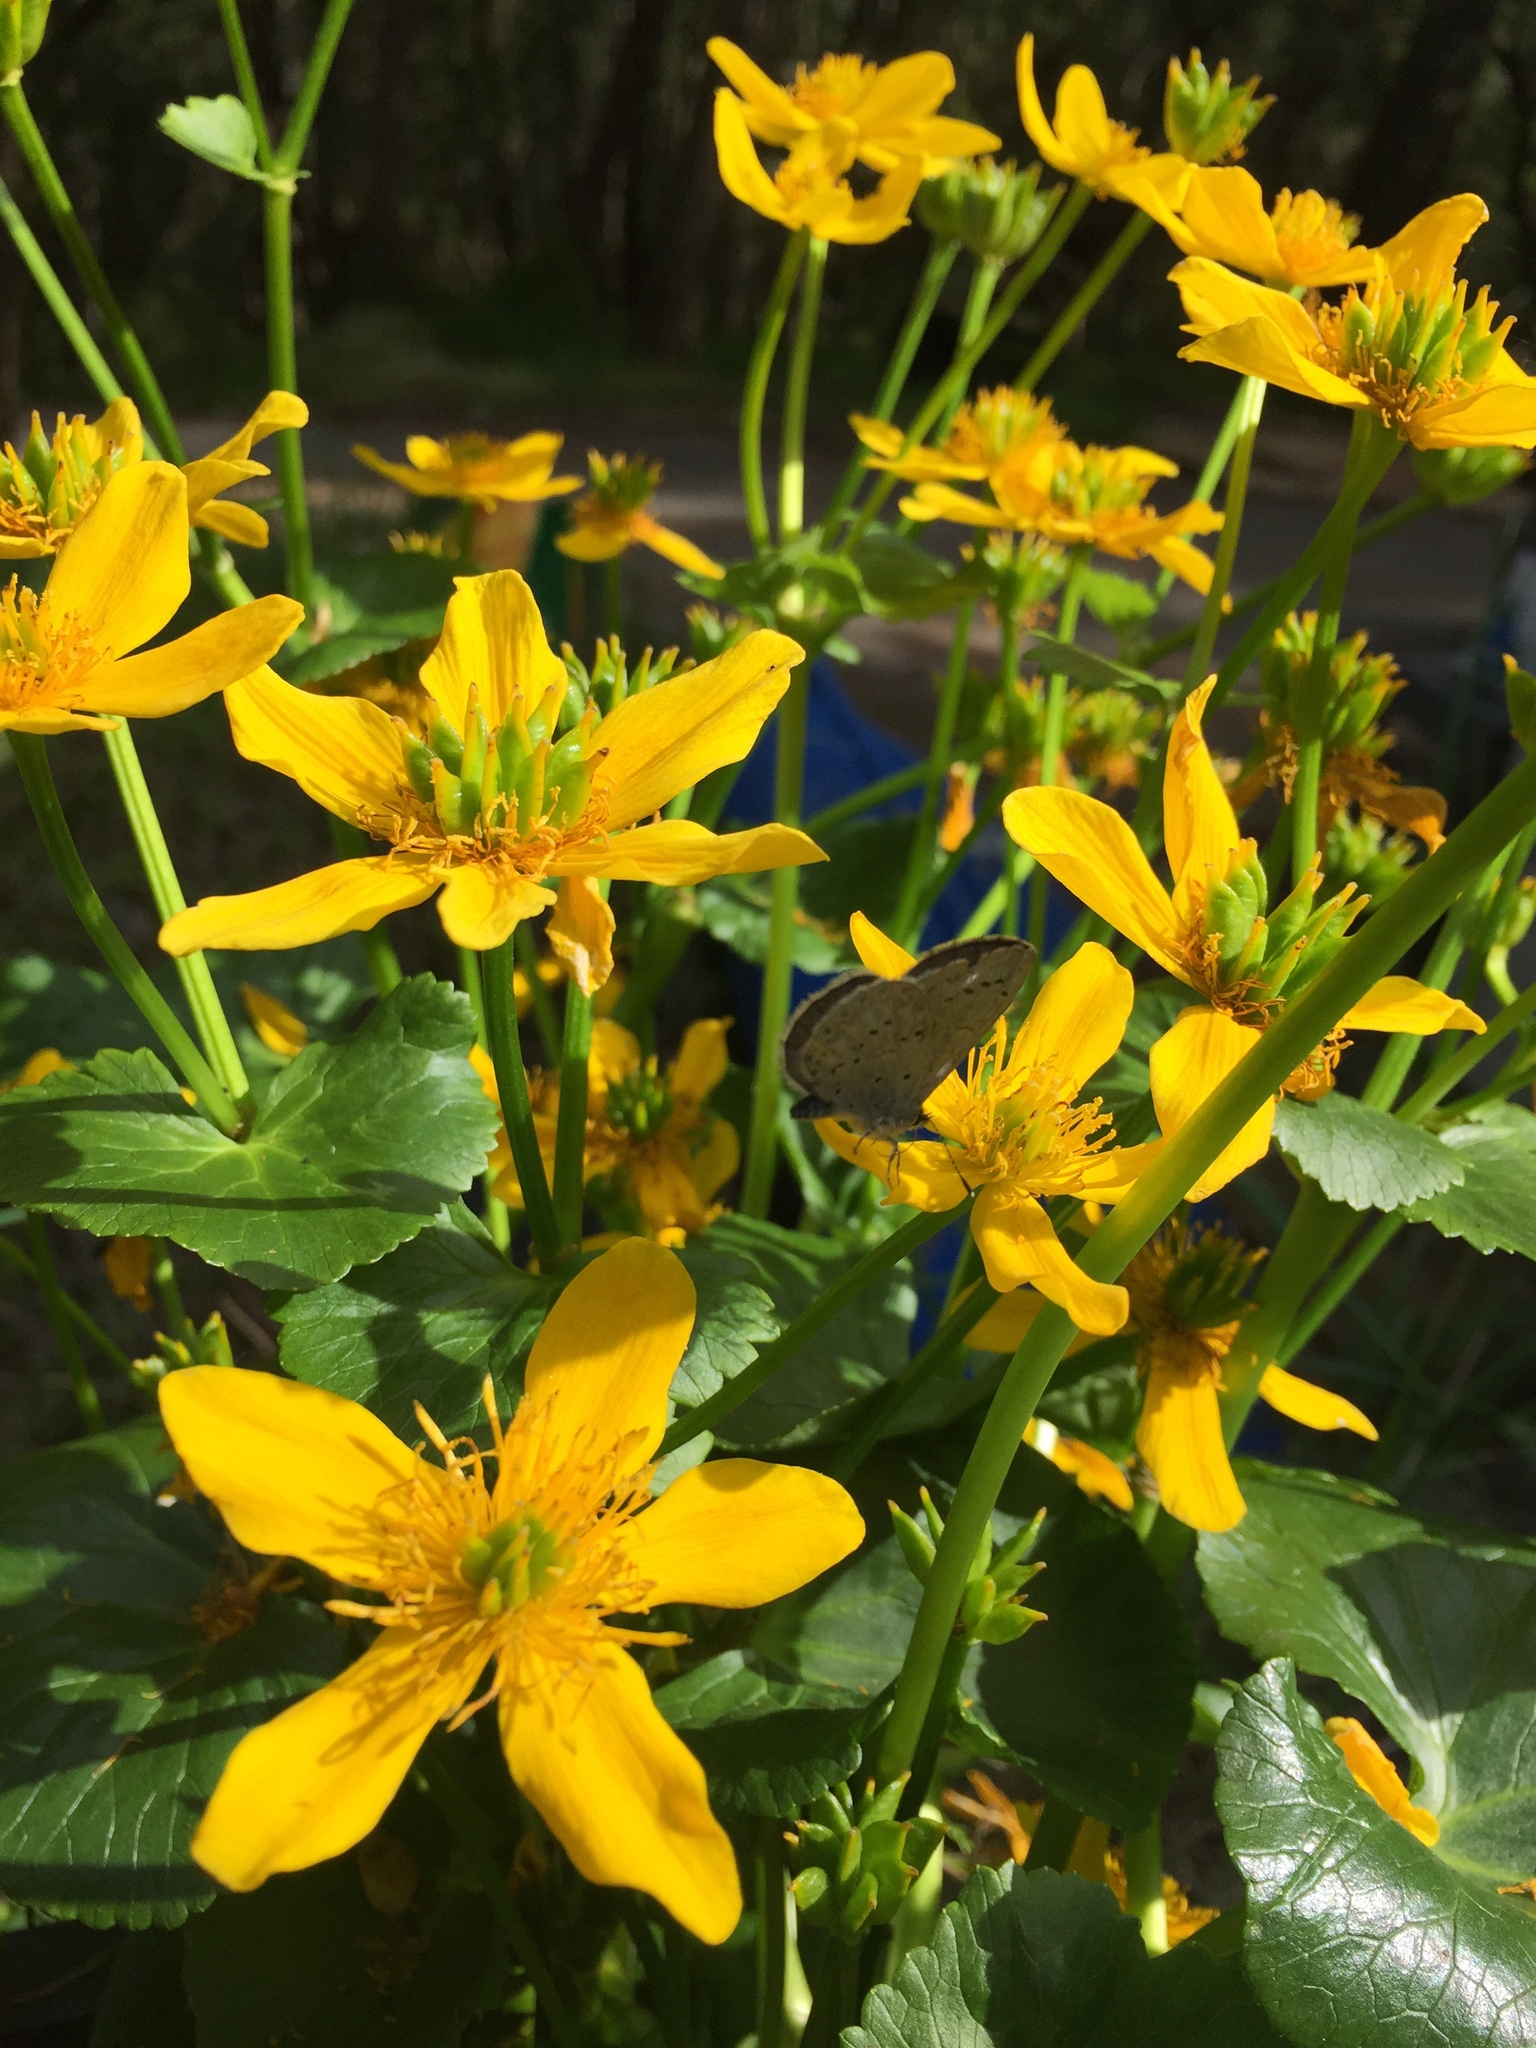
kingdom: Animalia
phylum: Arthropoda
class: Insecta
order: Lepidoptera
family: Lycaenidae
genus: Celastrina
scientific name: Celastrina ladon
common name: Spring azure
